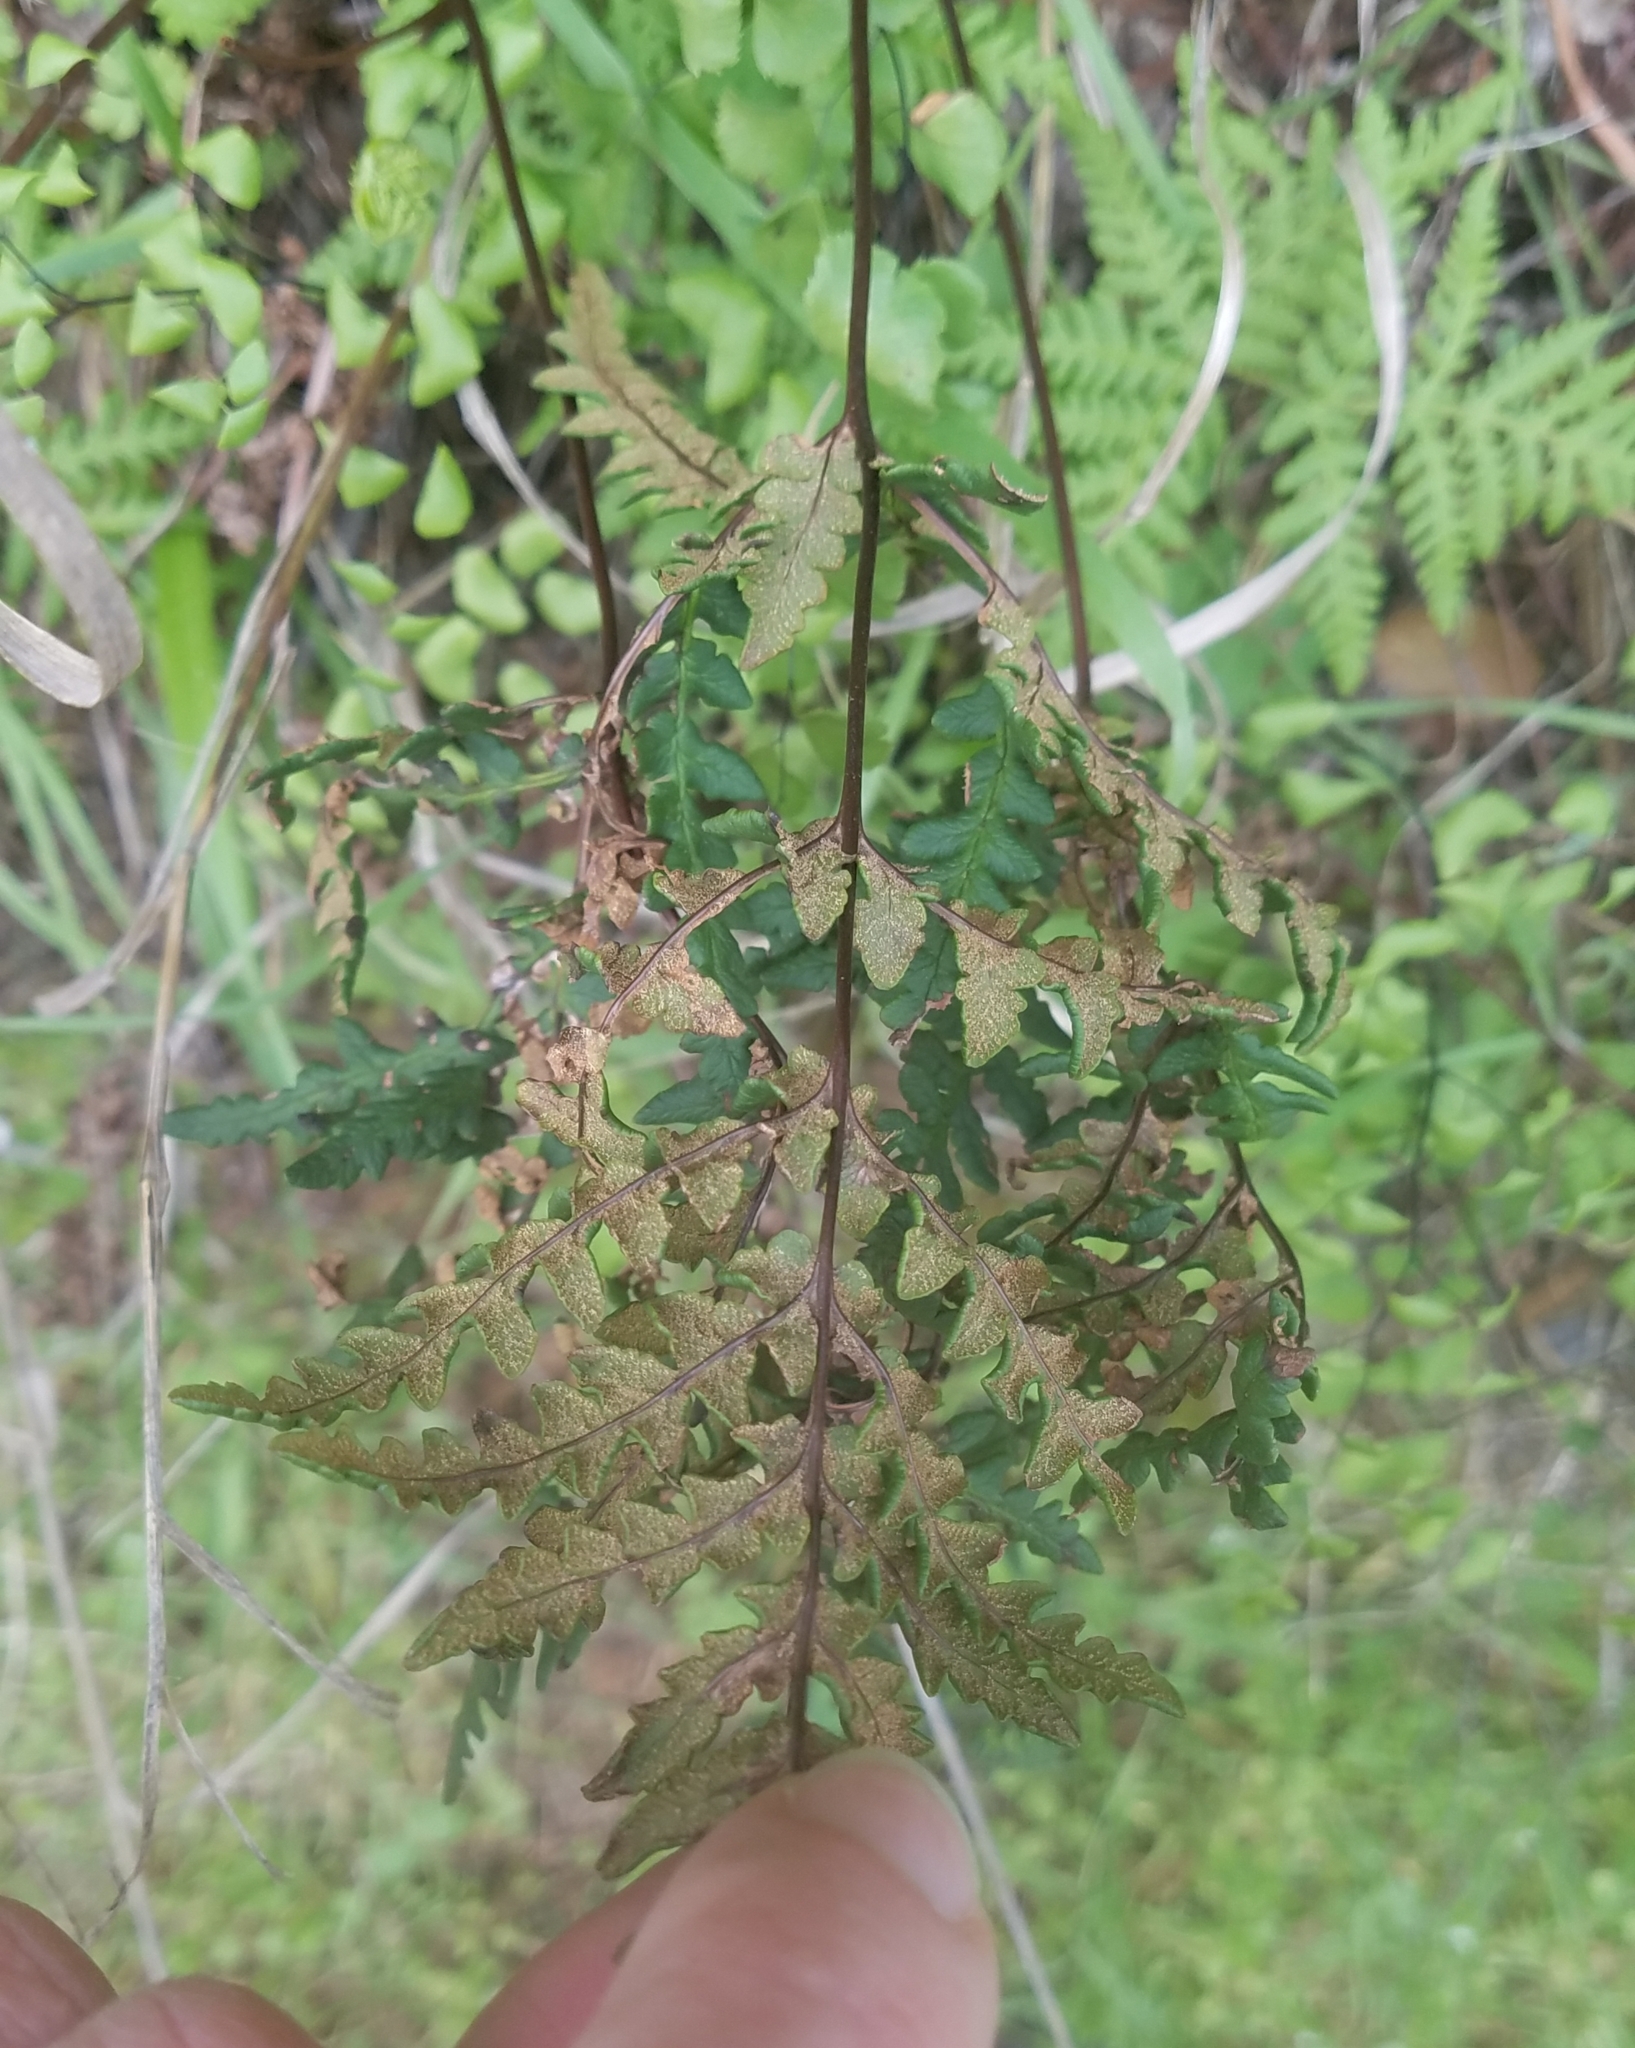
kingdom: Plantae
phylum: Tracheophyta
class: Polypodiopsida
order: Polypodiales
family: Pteridaceae
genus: Pentagramma
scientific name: Pentagramma triangularis
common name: Gold fern
